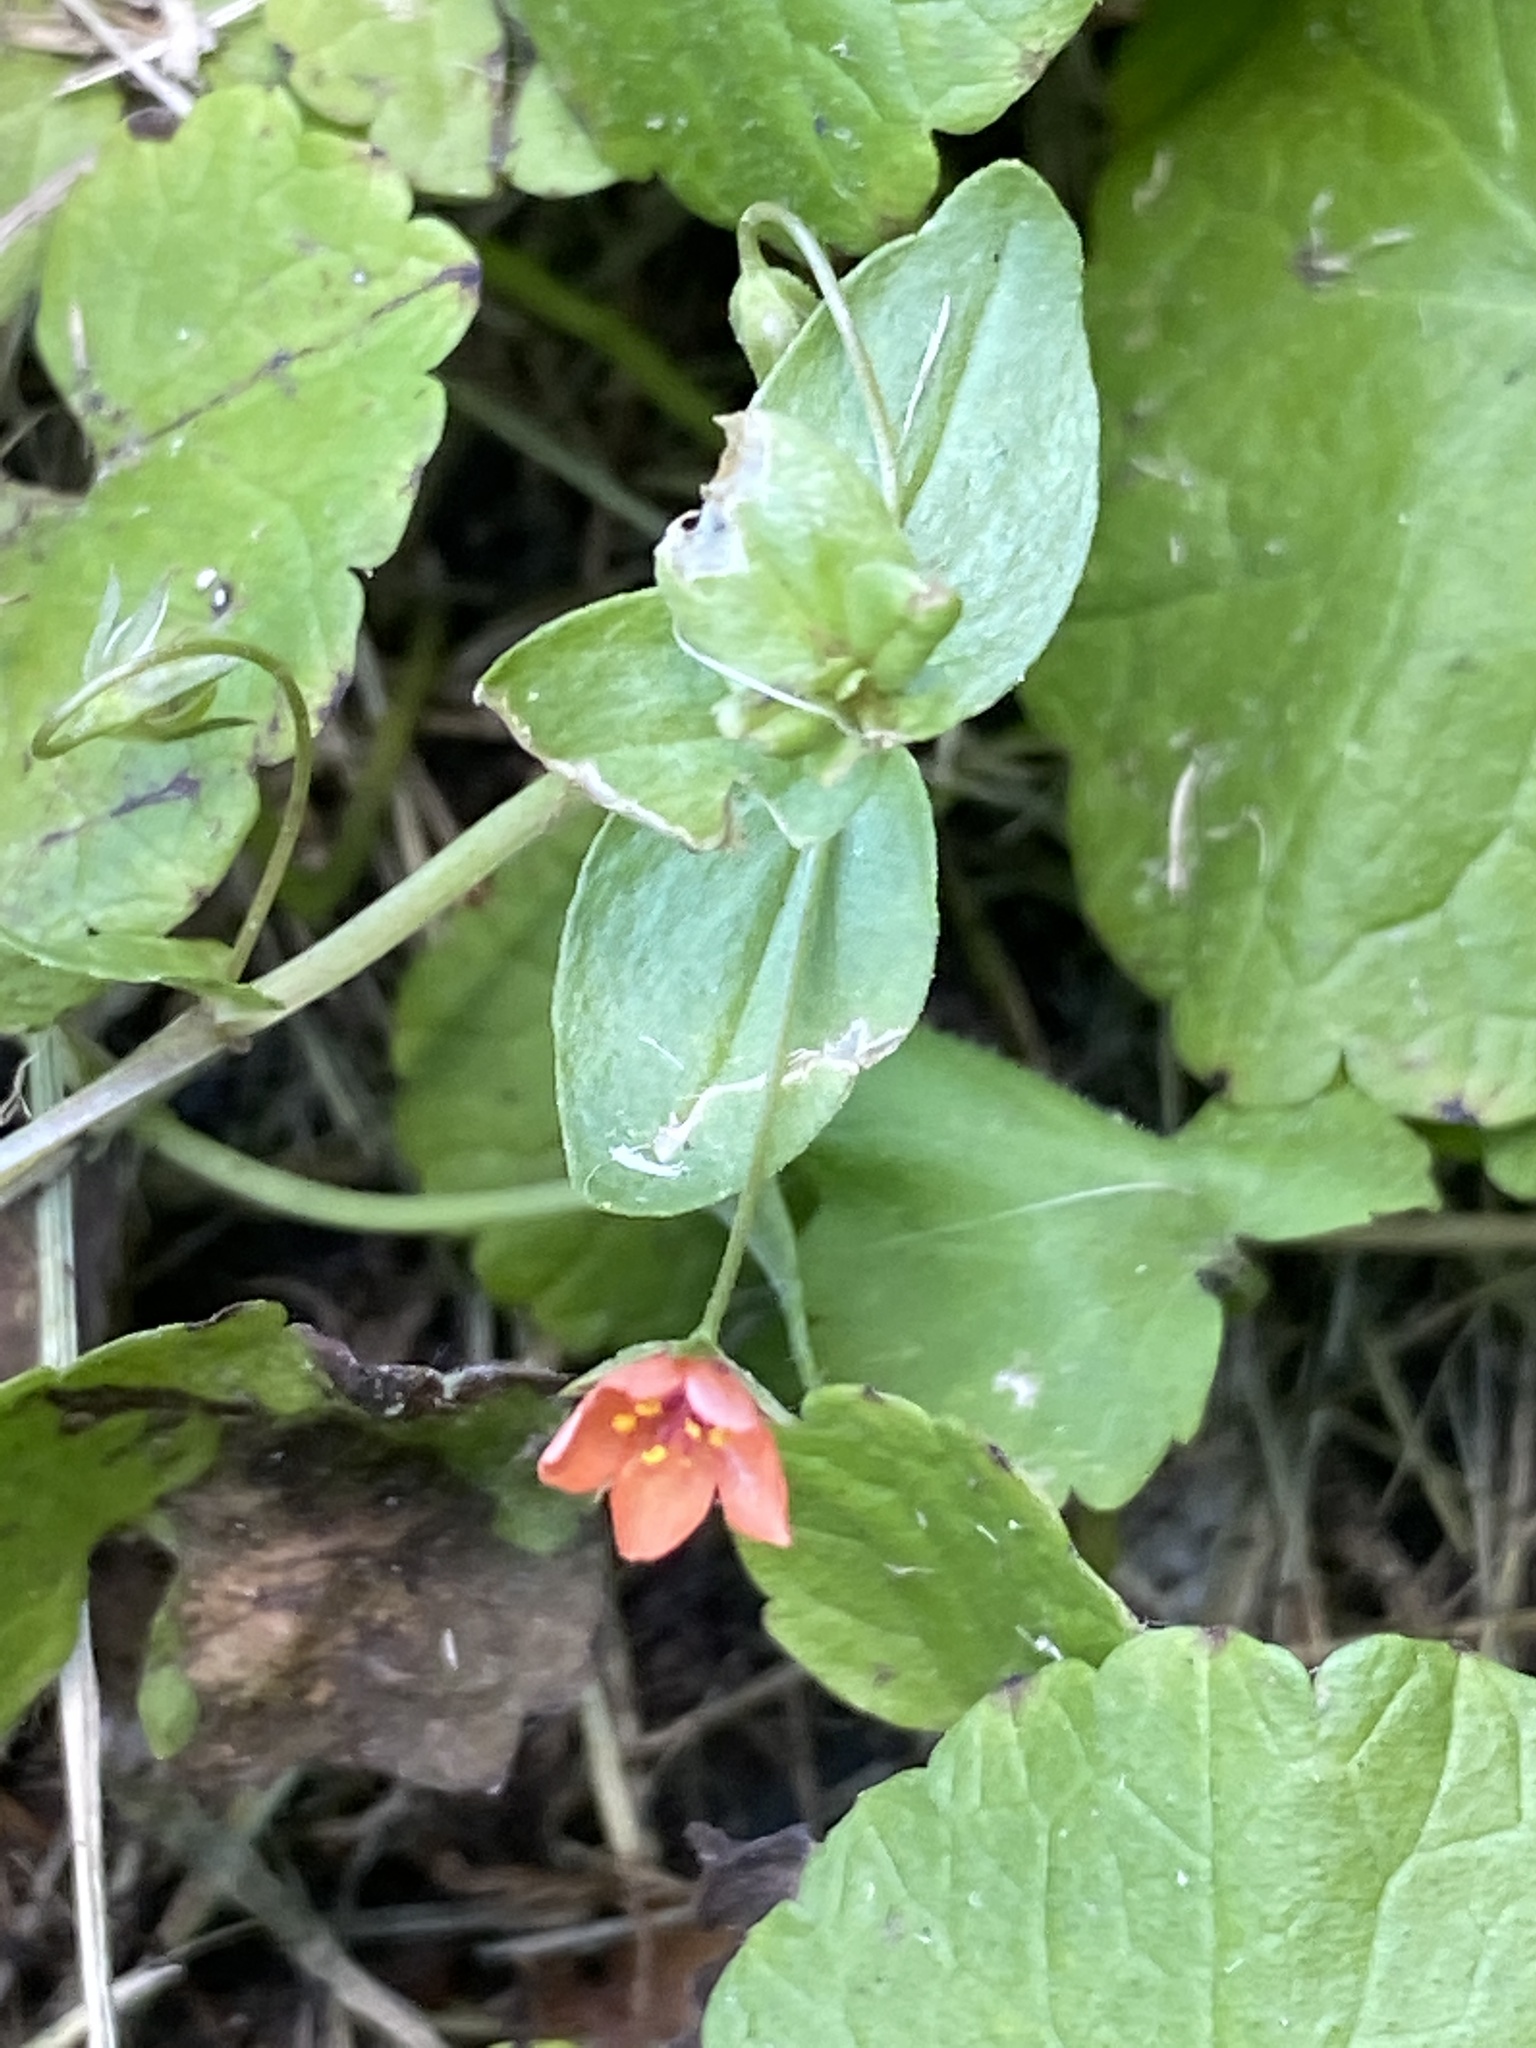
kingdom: Plantae
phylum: Tracheophyta
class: Magnoliopsida
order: Ericales
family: Primulaceae
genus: Lysimachia
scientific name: Lysimachia arvensis
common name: Scarlet pimpernel
